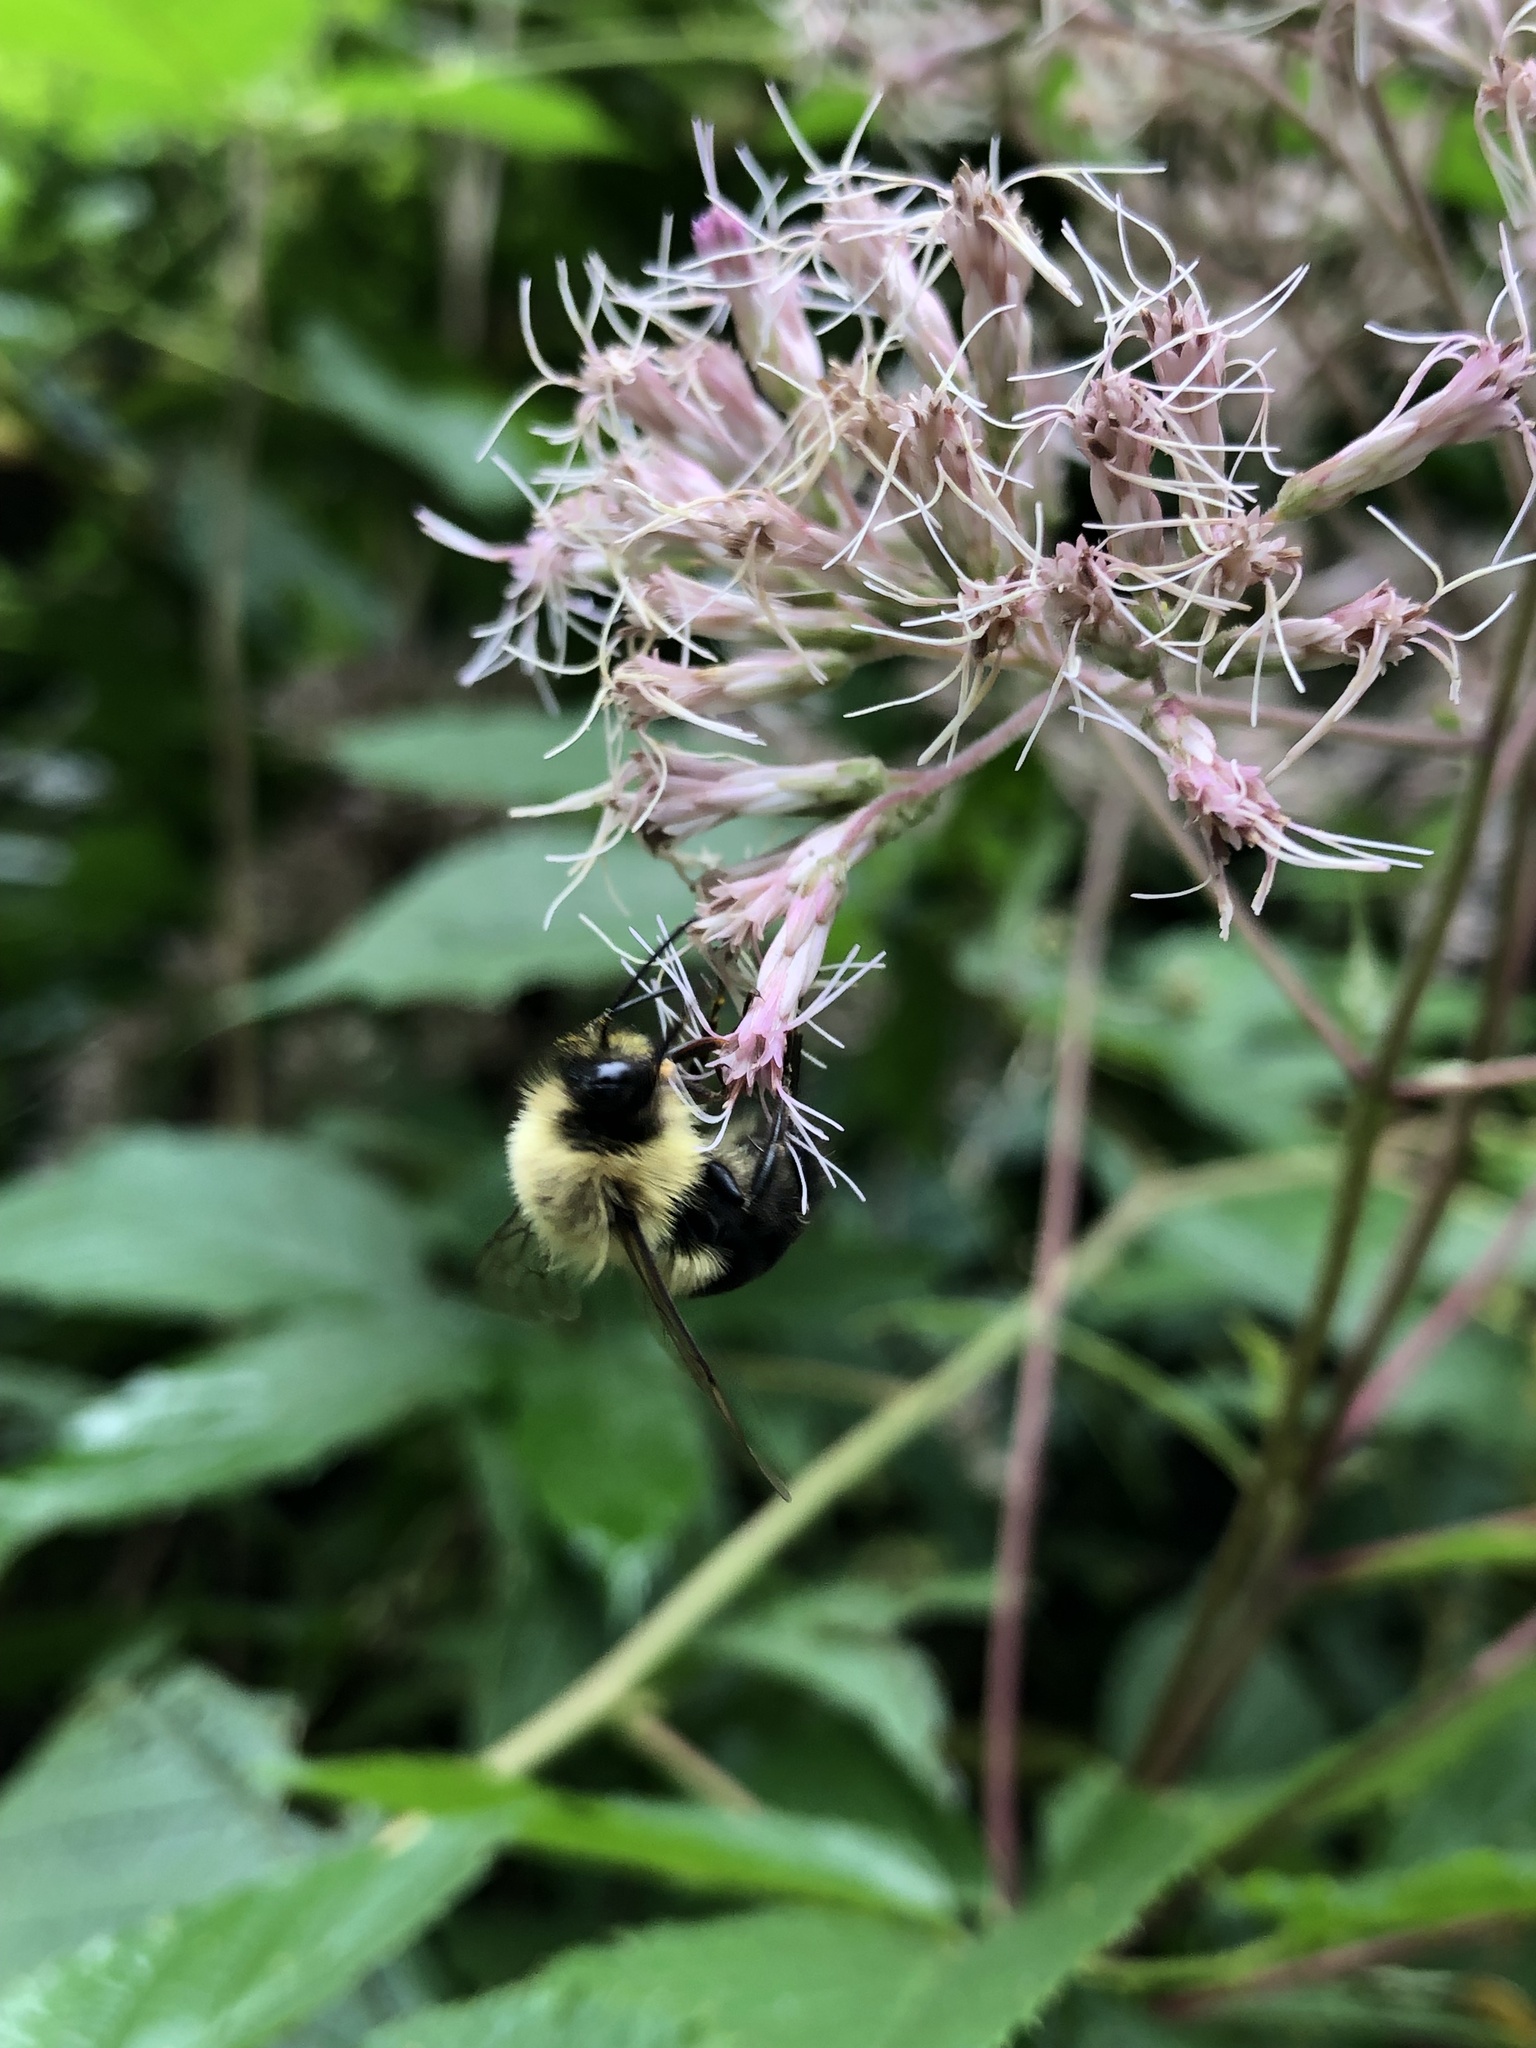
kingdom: Animalia
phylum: Arthropoda
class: Insecta
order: Hymenoptera
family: Apidae
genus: Bombus
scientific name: Bombus impatiens
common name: Common eastern bumble bee
